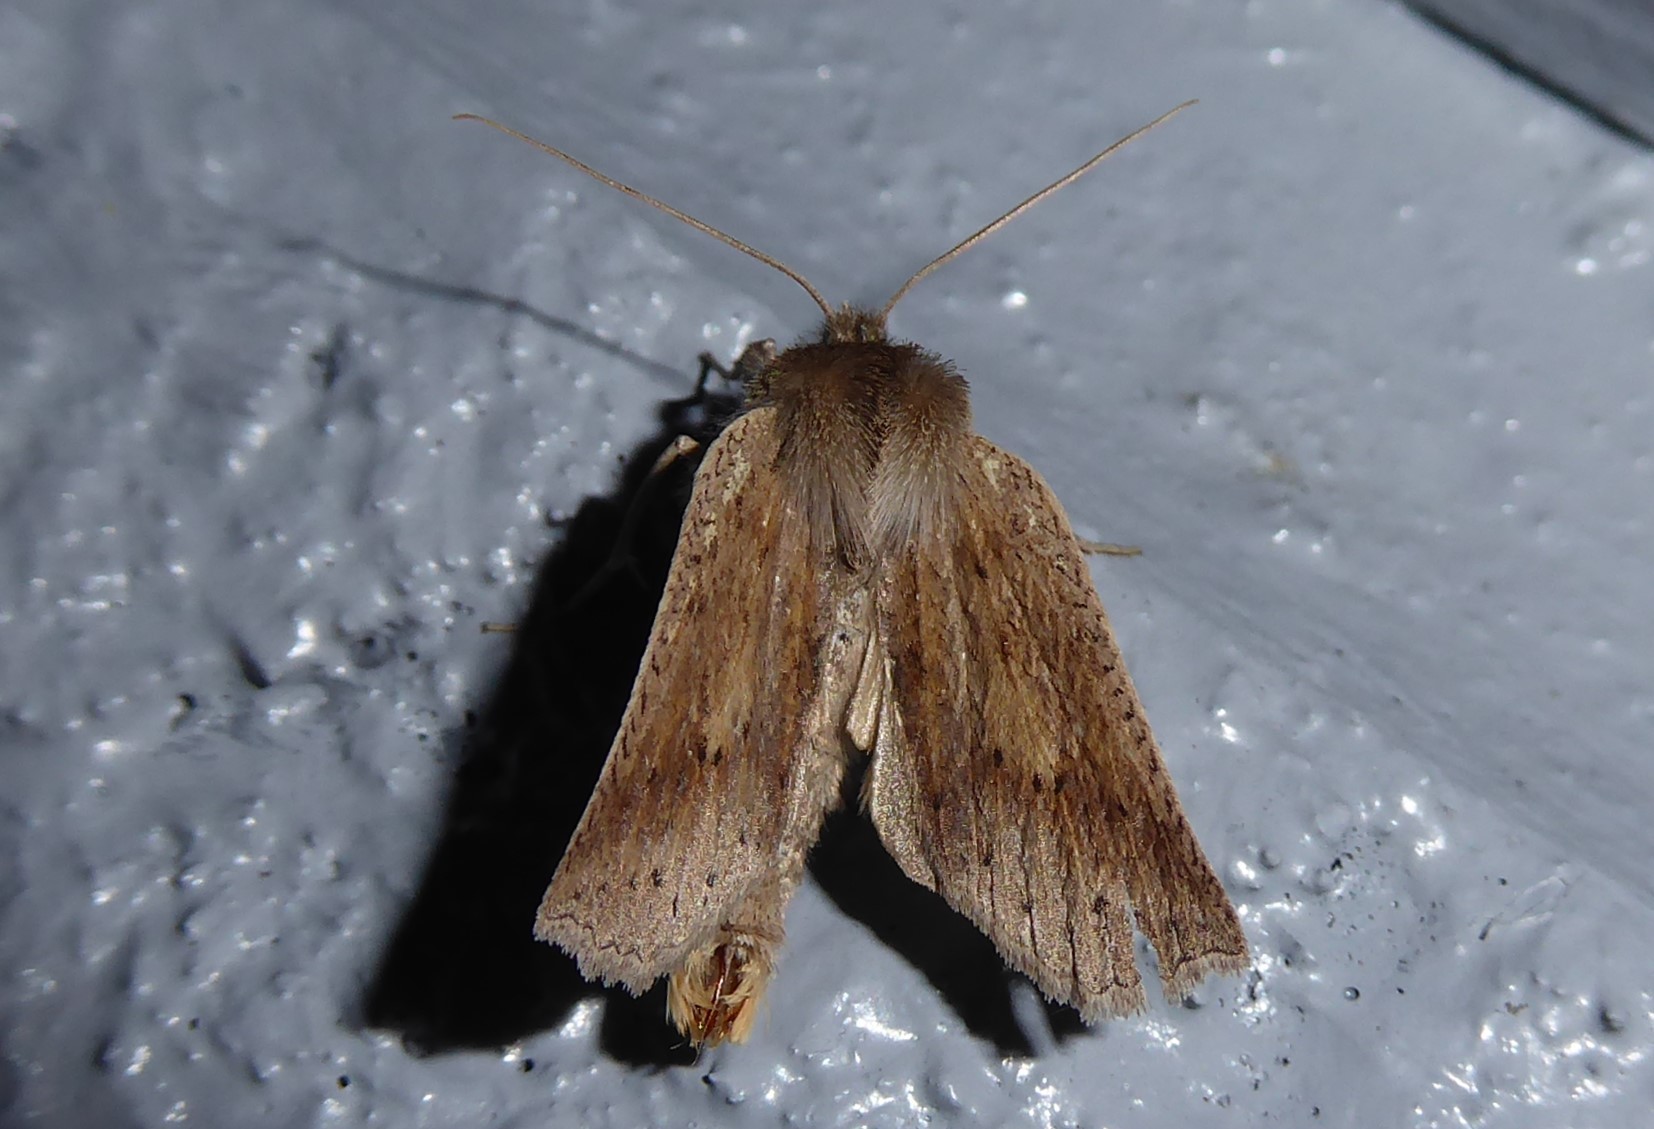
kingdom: Animalia
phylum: Arthropoda
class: Insecta
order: Lepidoptera
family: Geometridae
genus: Declana
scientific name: Declana leptomera
